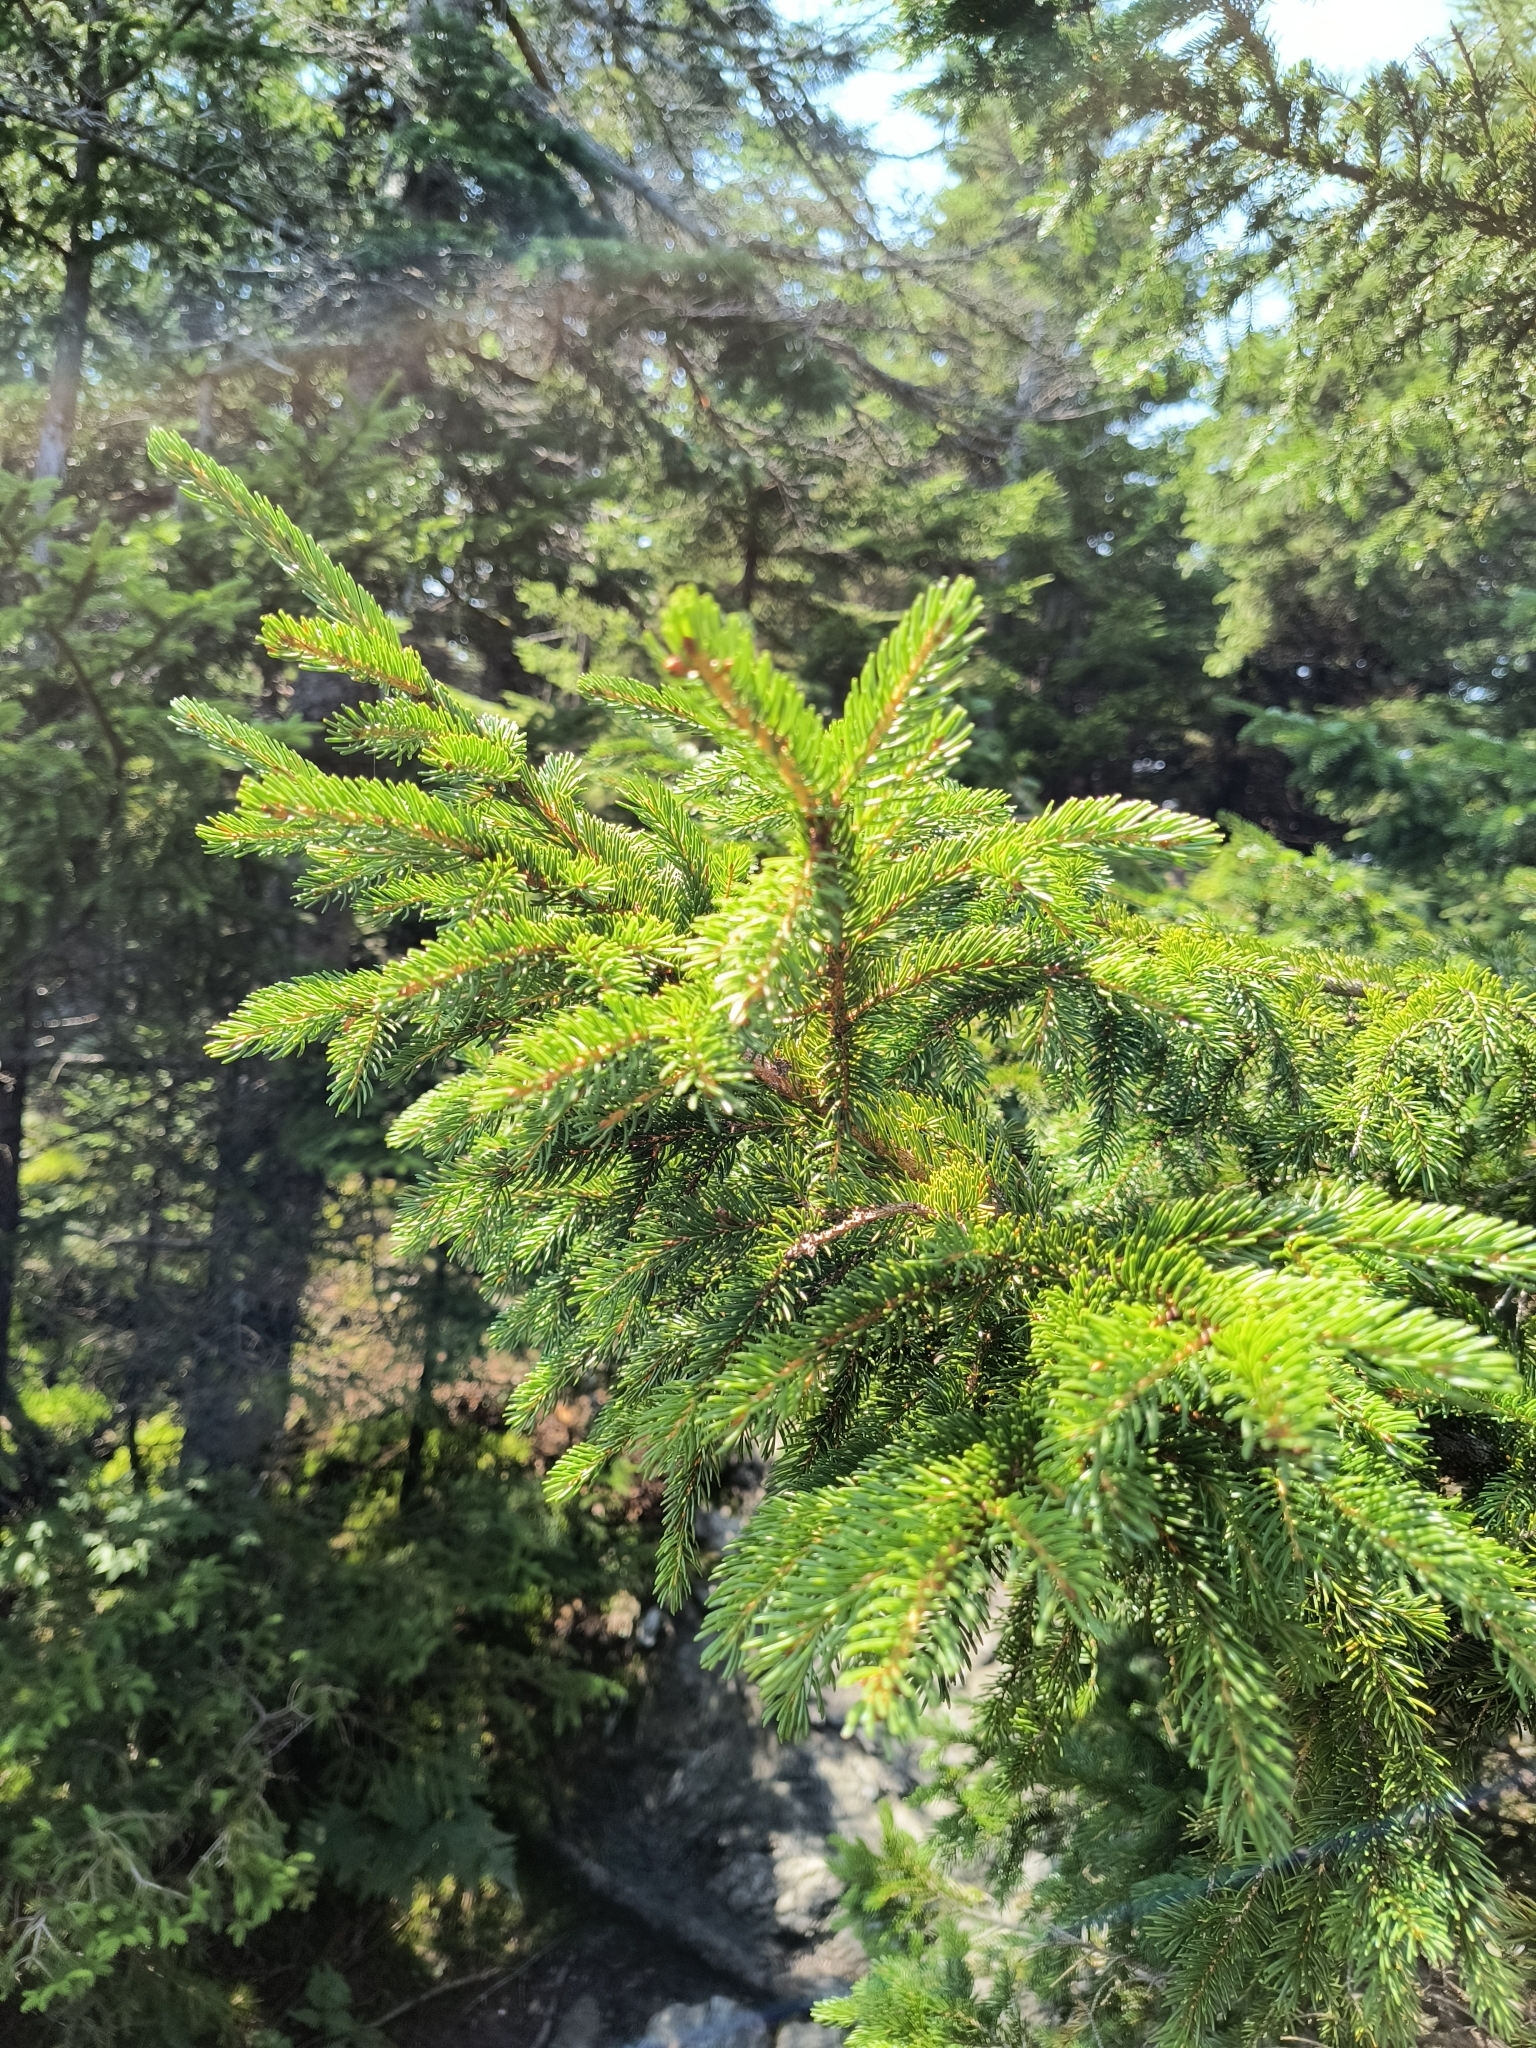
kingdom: Plantae
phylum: Tracheophyta
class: Pinopsida
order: Pinales
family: Pinaceae
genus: Picea
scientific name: Picea rubens
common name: Red spruce
